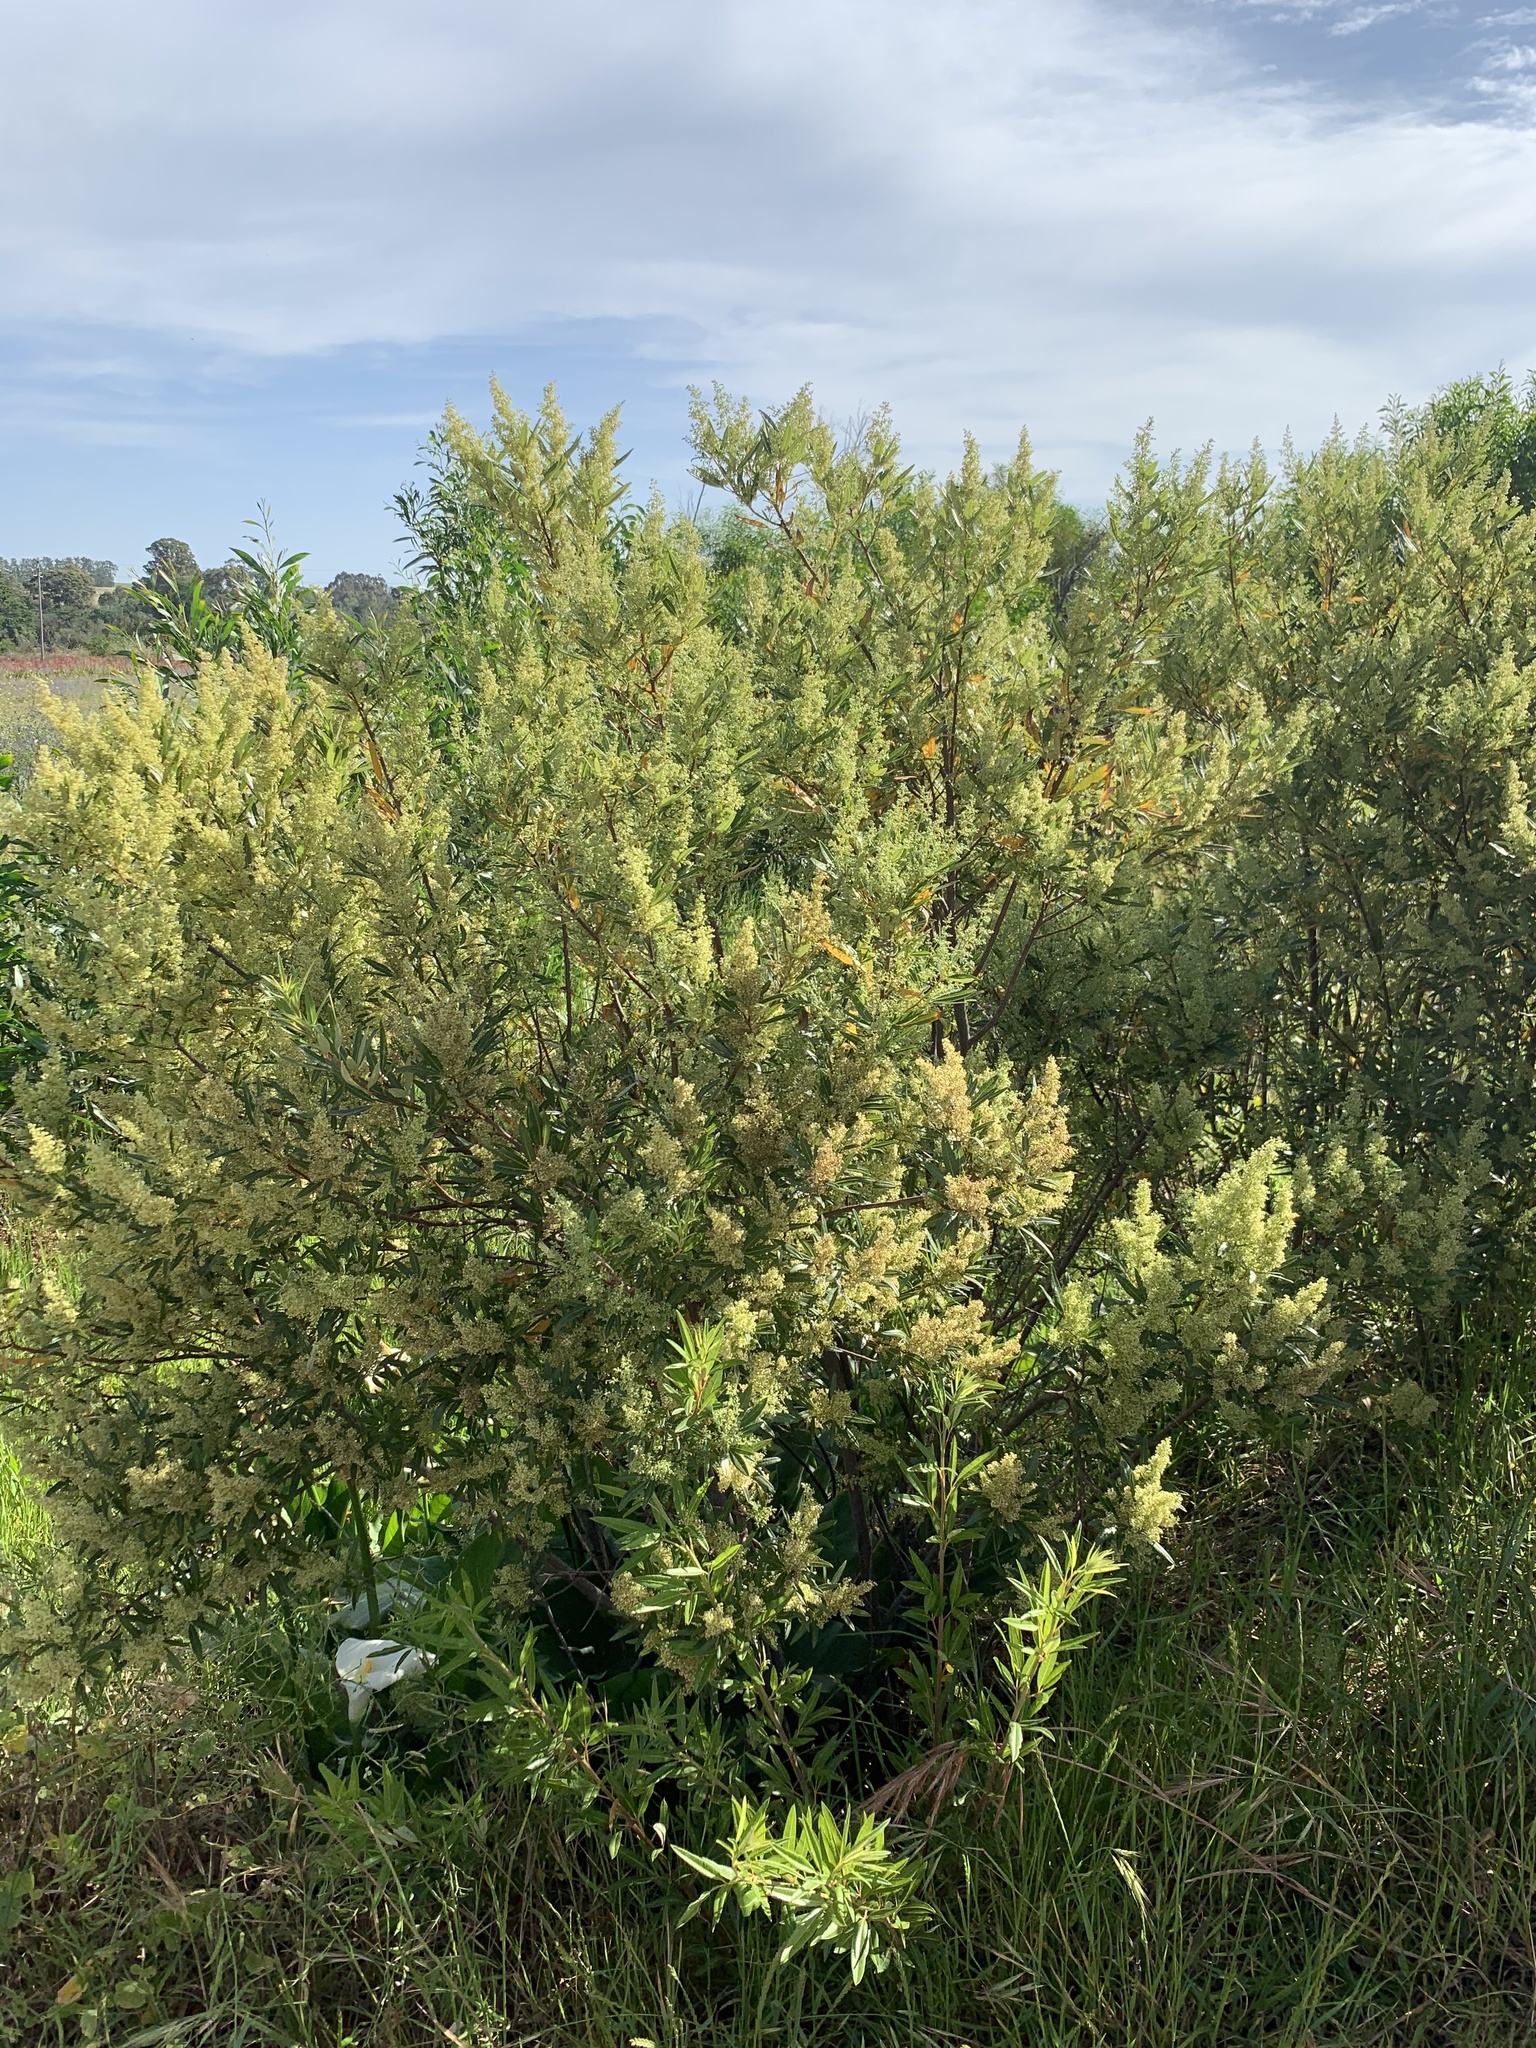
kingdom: Plantae
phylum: Tracheophyta
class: Magnoliopsida
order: Sapindales
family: Anacardiaceae
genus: Searsia
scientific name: Searsia angustifolia
